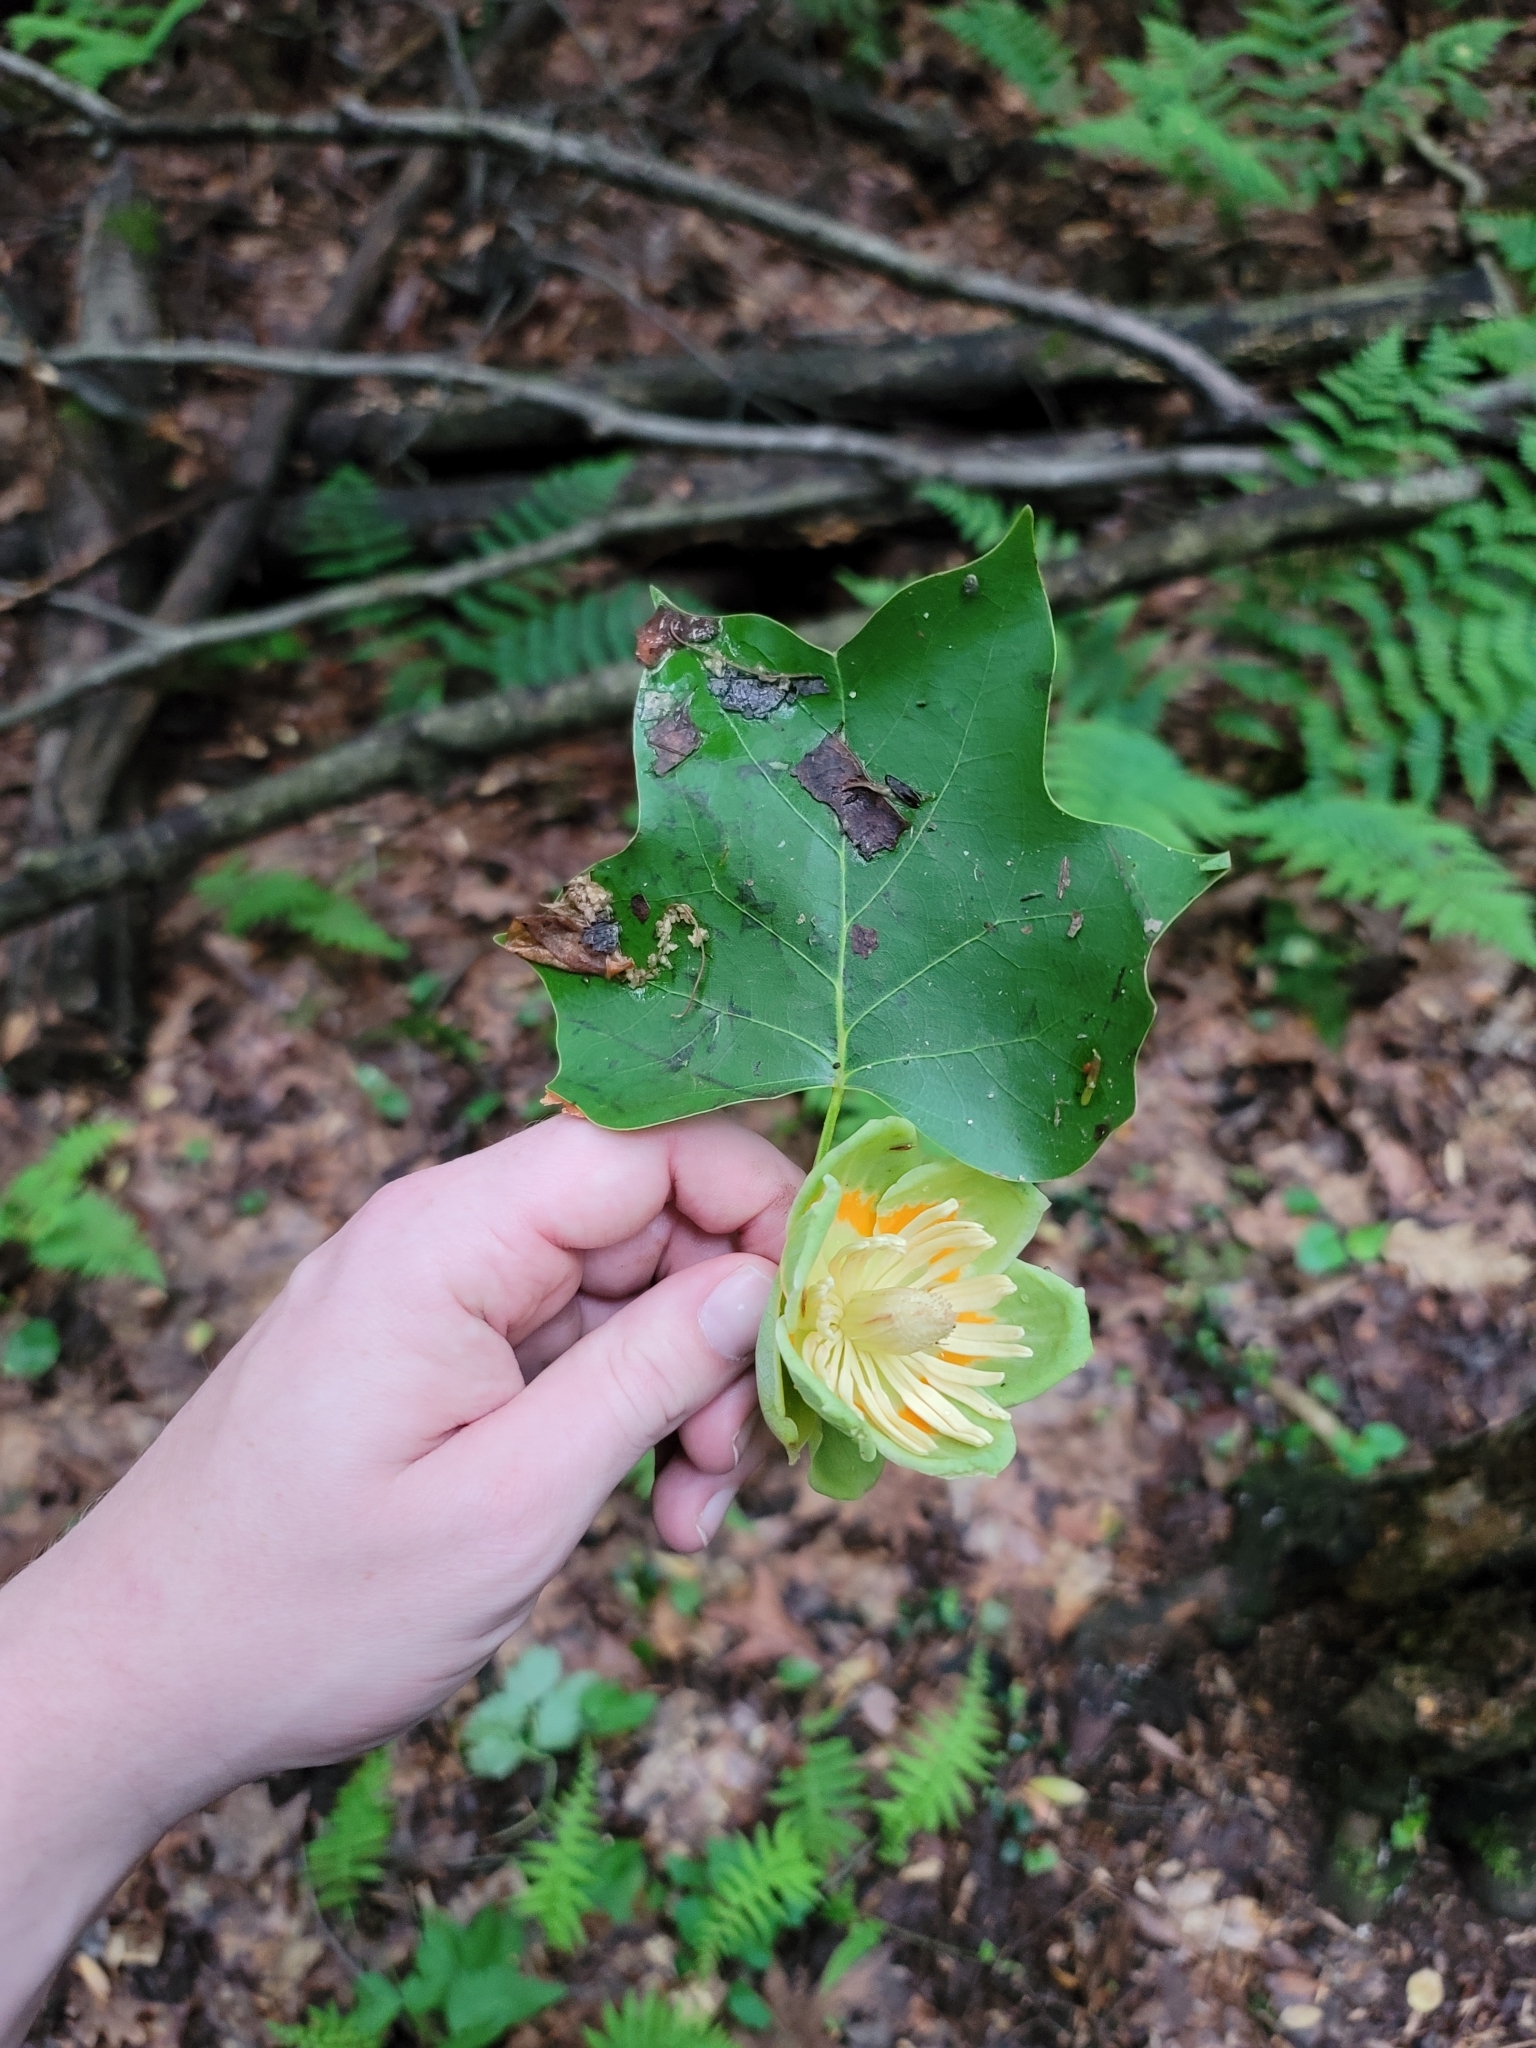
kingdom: Plantae
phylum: Tracheophyta
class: Magnoliopsida
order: Magnoliales
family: Magnoliaceae
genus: Liriodendron
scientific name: Liriodendron tulipifera
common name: Tulip tree
